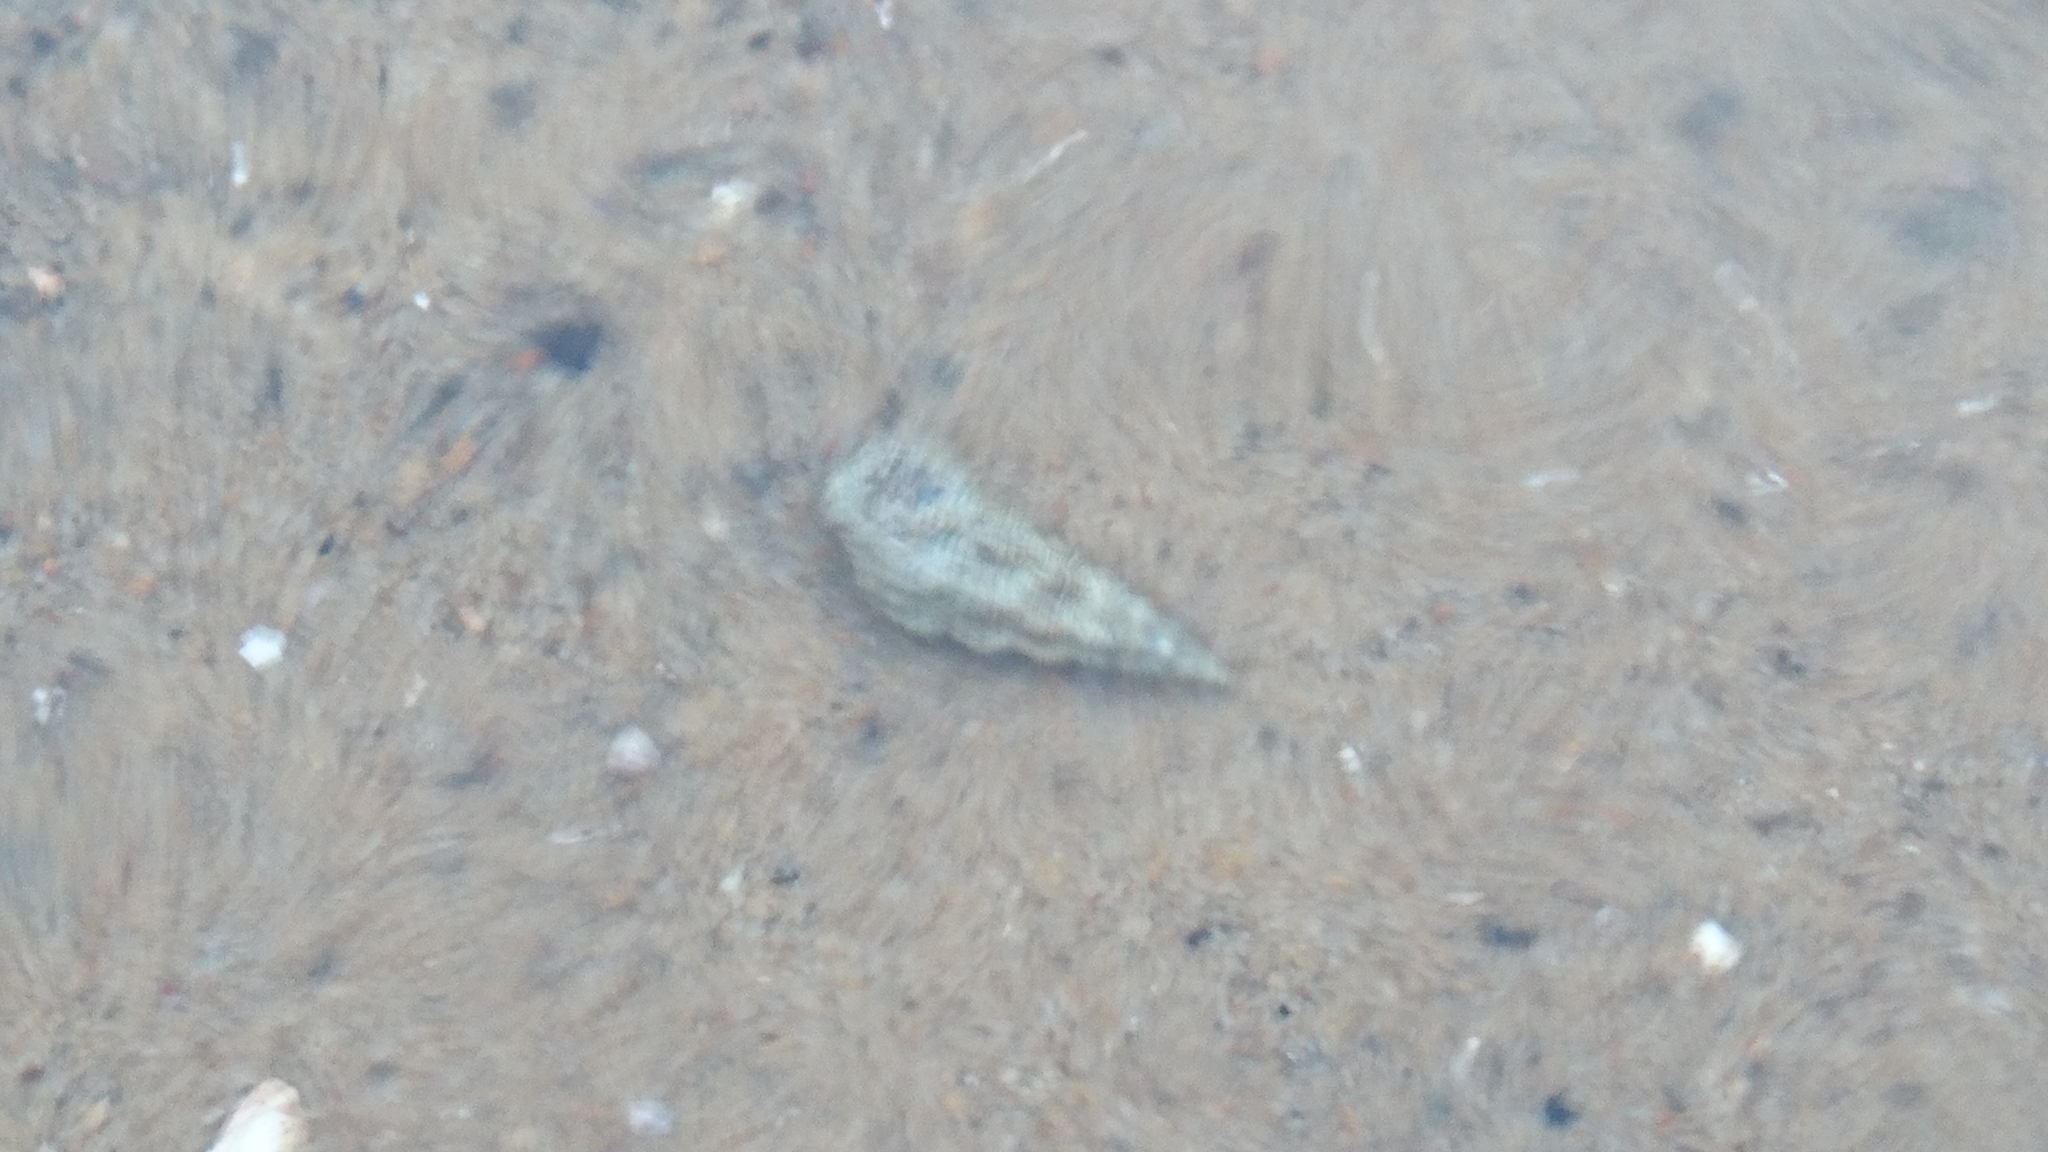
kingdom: Animalia
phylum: Mollusca
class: Gastropoda
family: Batillariidae
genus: Batillaria
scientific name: Batillaria australis
